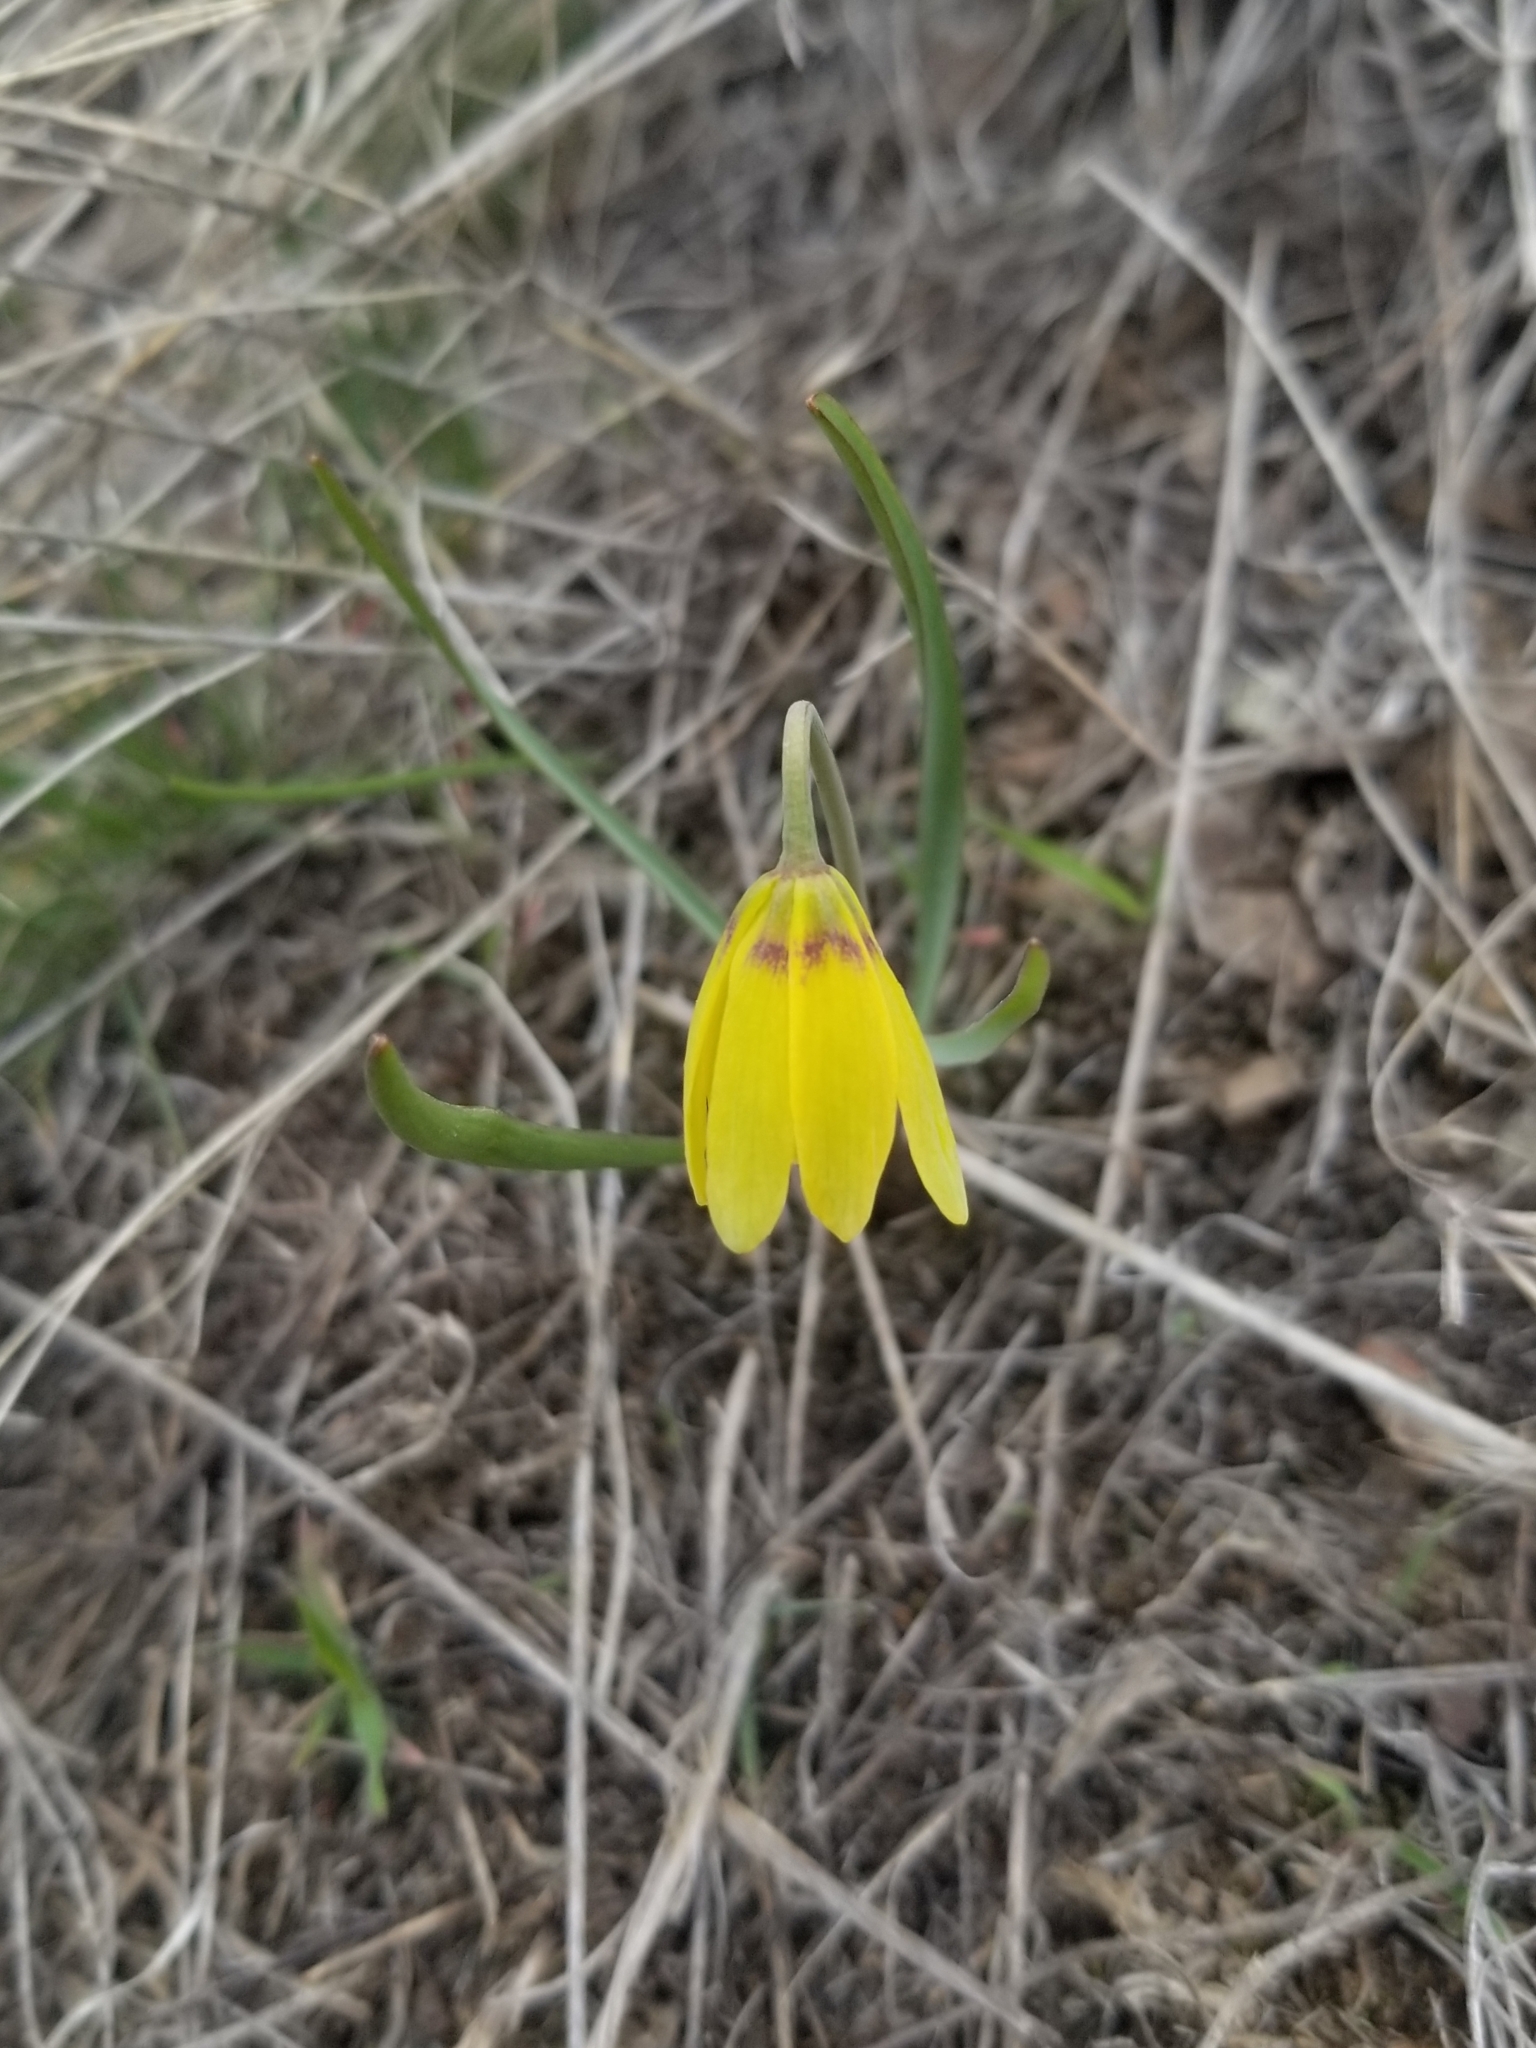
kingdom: Plantae
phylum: Tracheophyta
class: Liliopsida
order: Liliales
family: Liliaceae
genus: Fritillaria
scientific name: Fritillaria pudica
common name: Yellow fritillary
